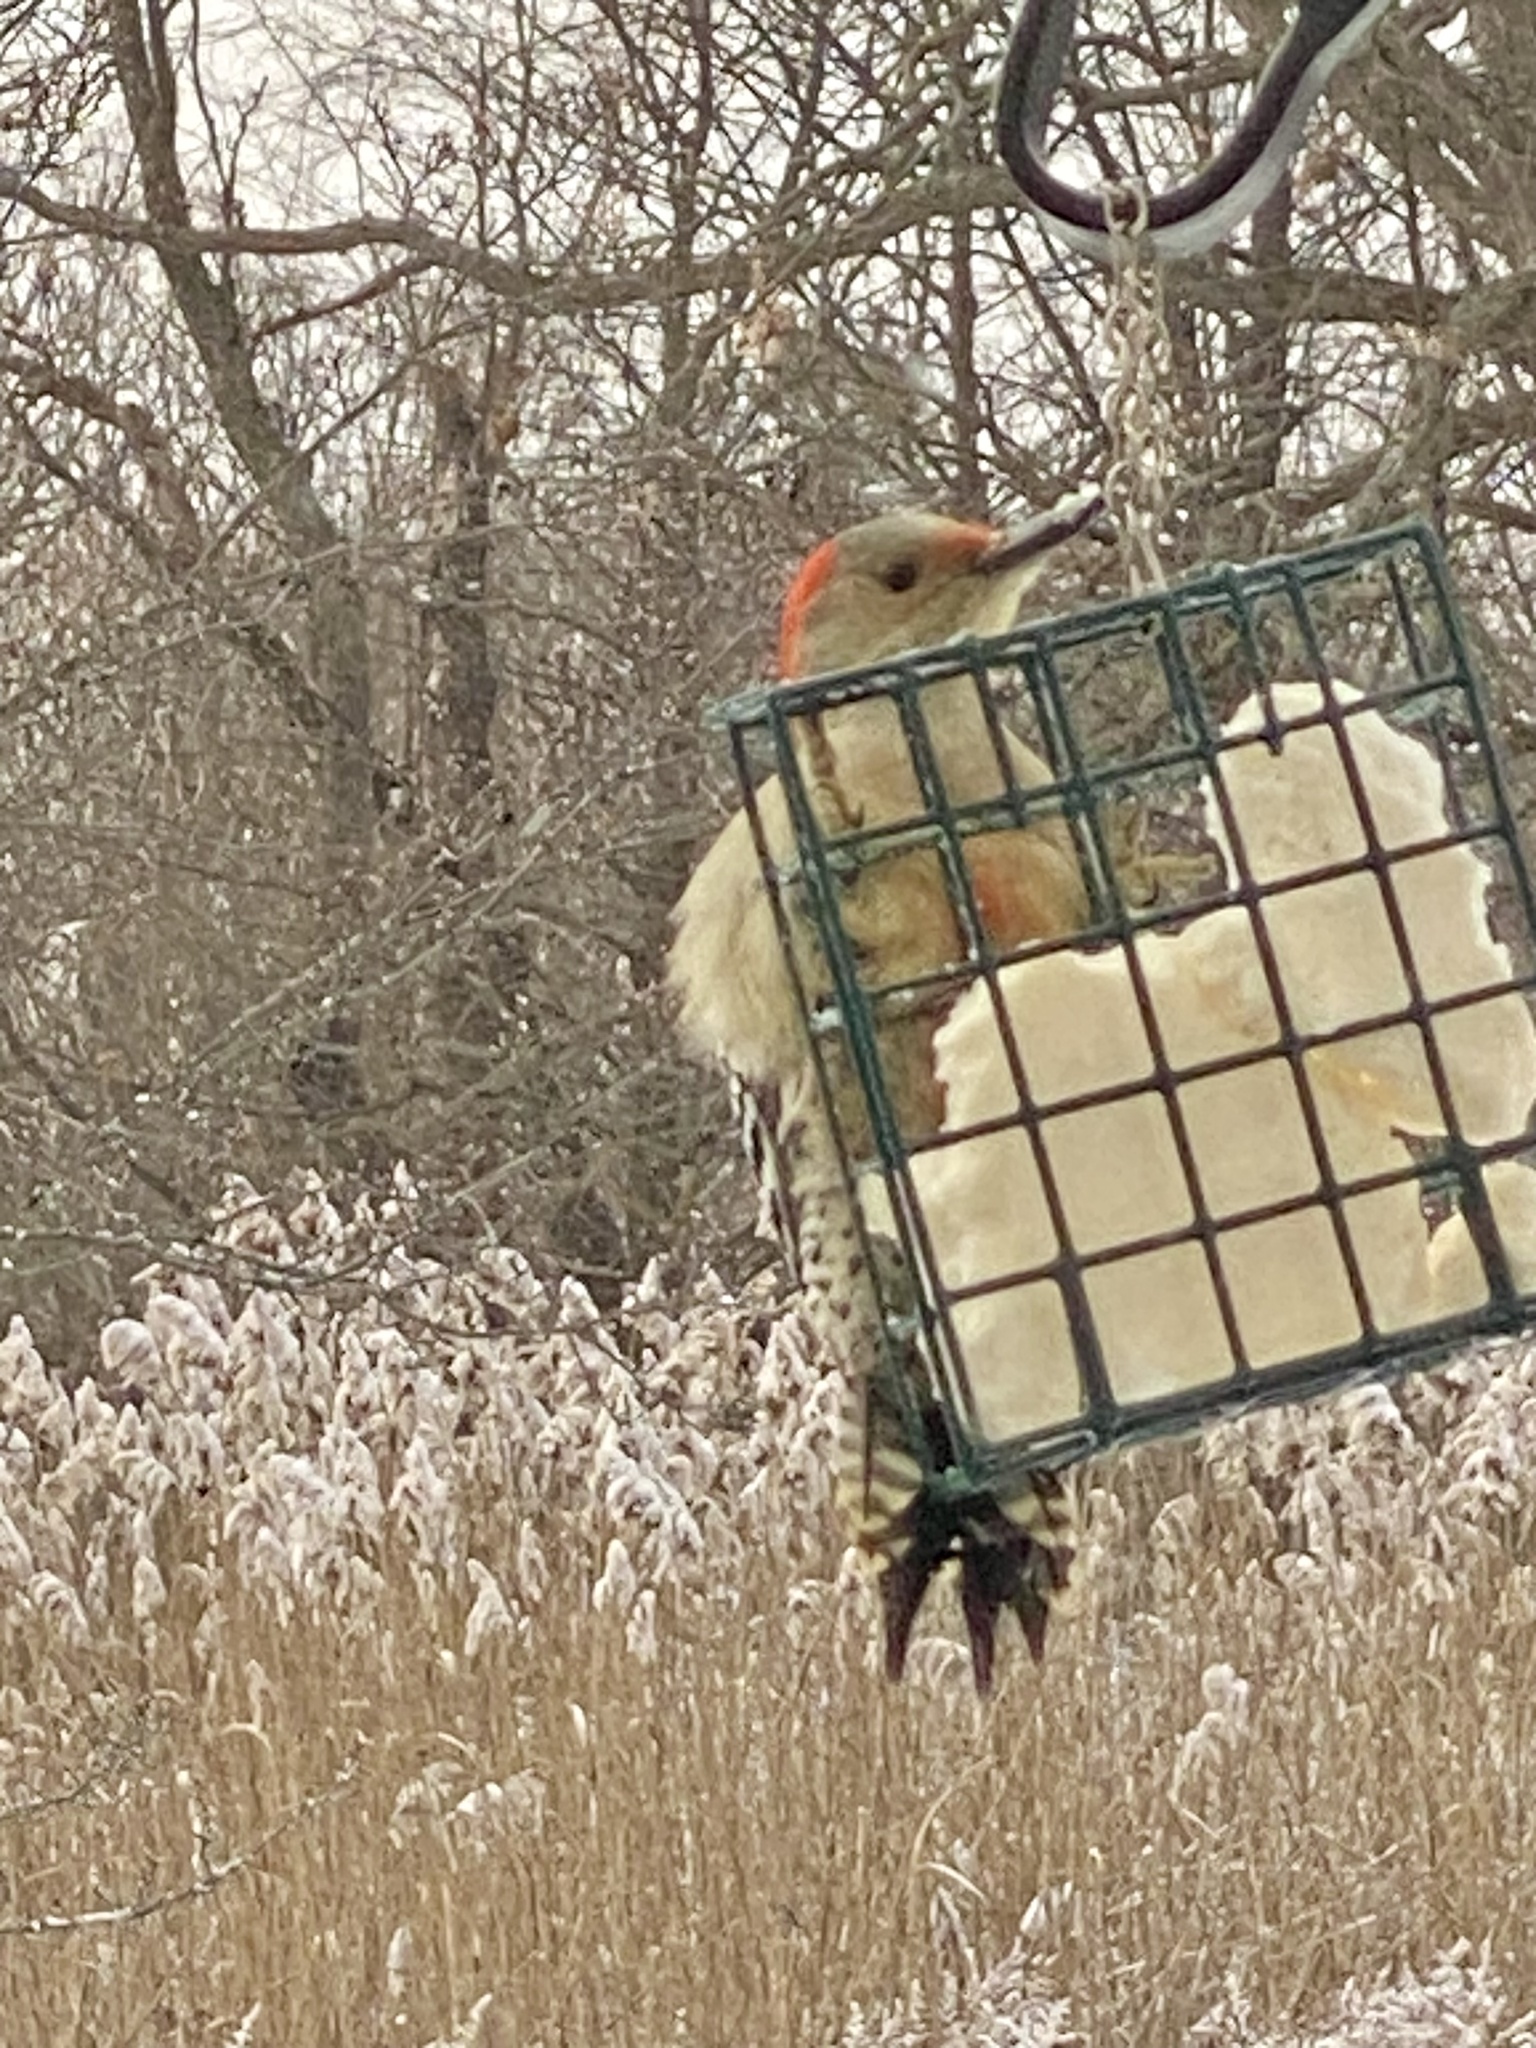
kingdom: Animalia
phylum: Chordata
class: Aves
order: Piciformes
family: Picidae
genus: Melanerpes
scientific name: Melanerpes carolinus
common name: Red-bellied woodpecker
